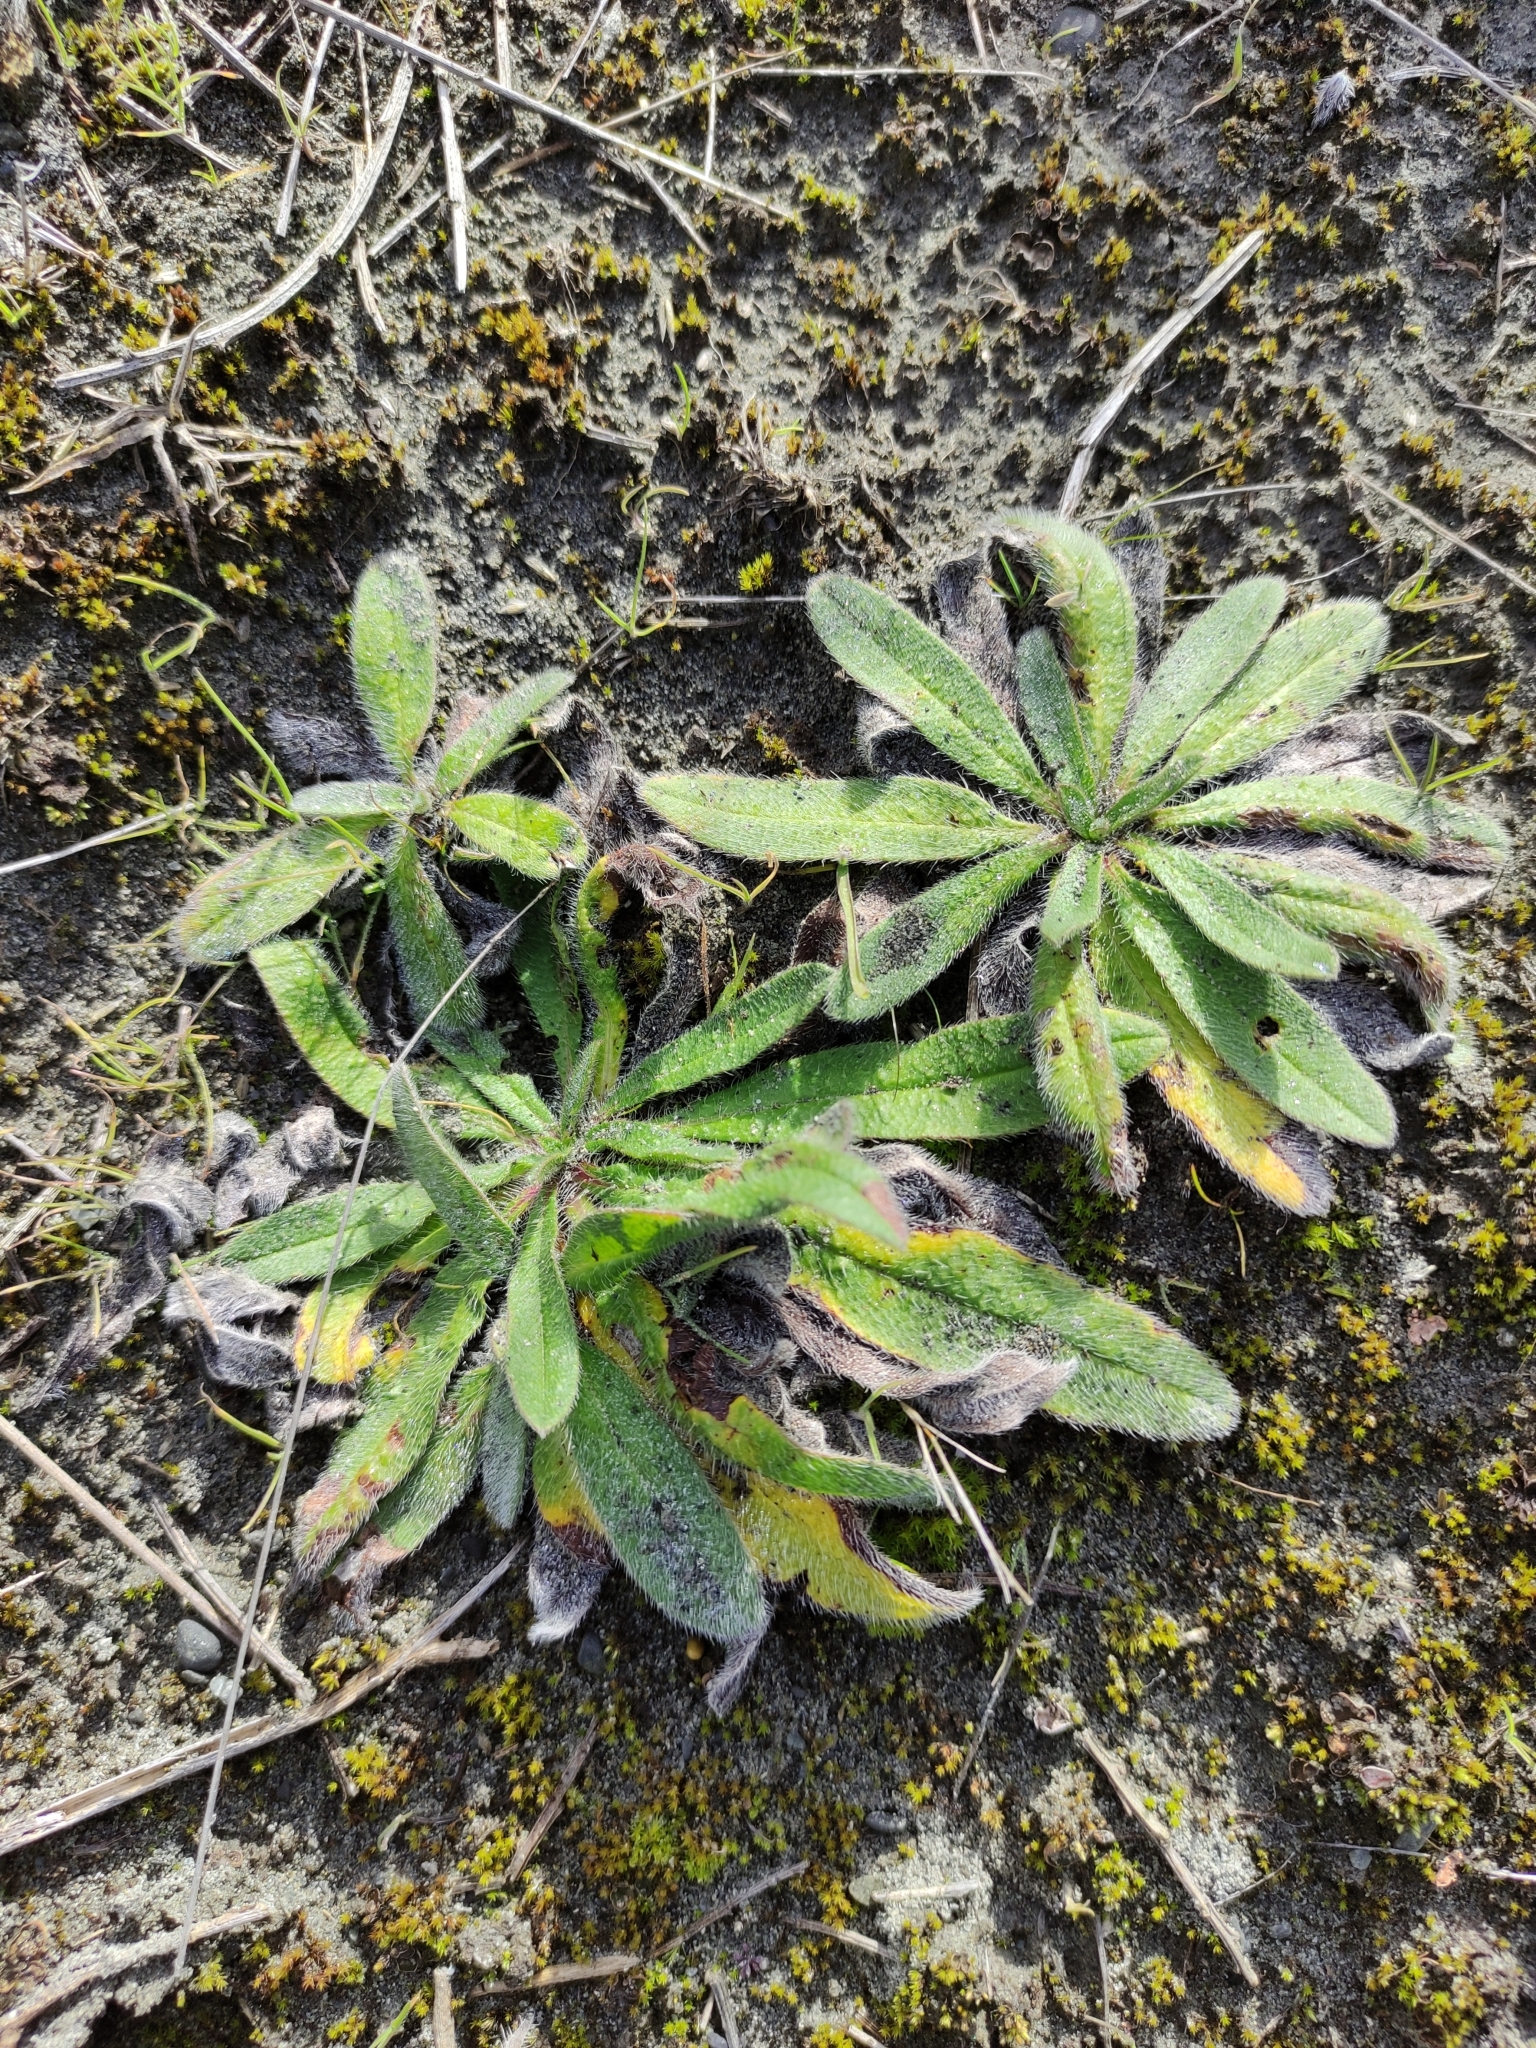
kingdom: Plantae
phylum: Tracheophyta
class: Magnoliopsida
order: Boraginales
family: Boraginaceae
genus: Echium
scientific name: Echium vulgare
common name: Common viper's bugloss
